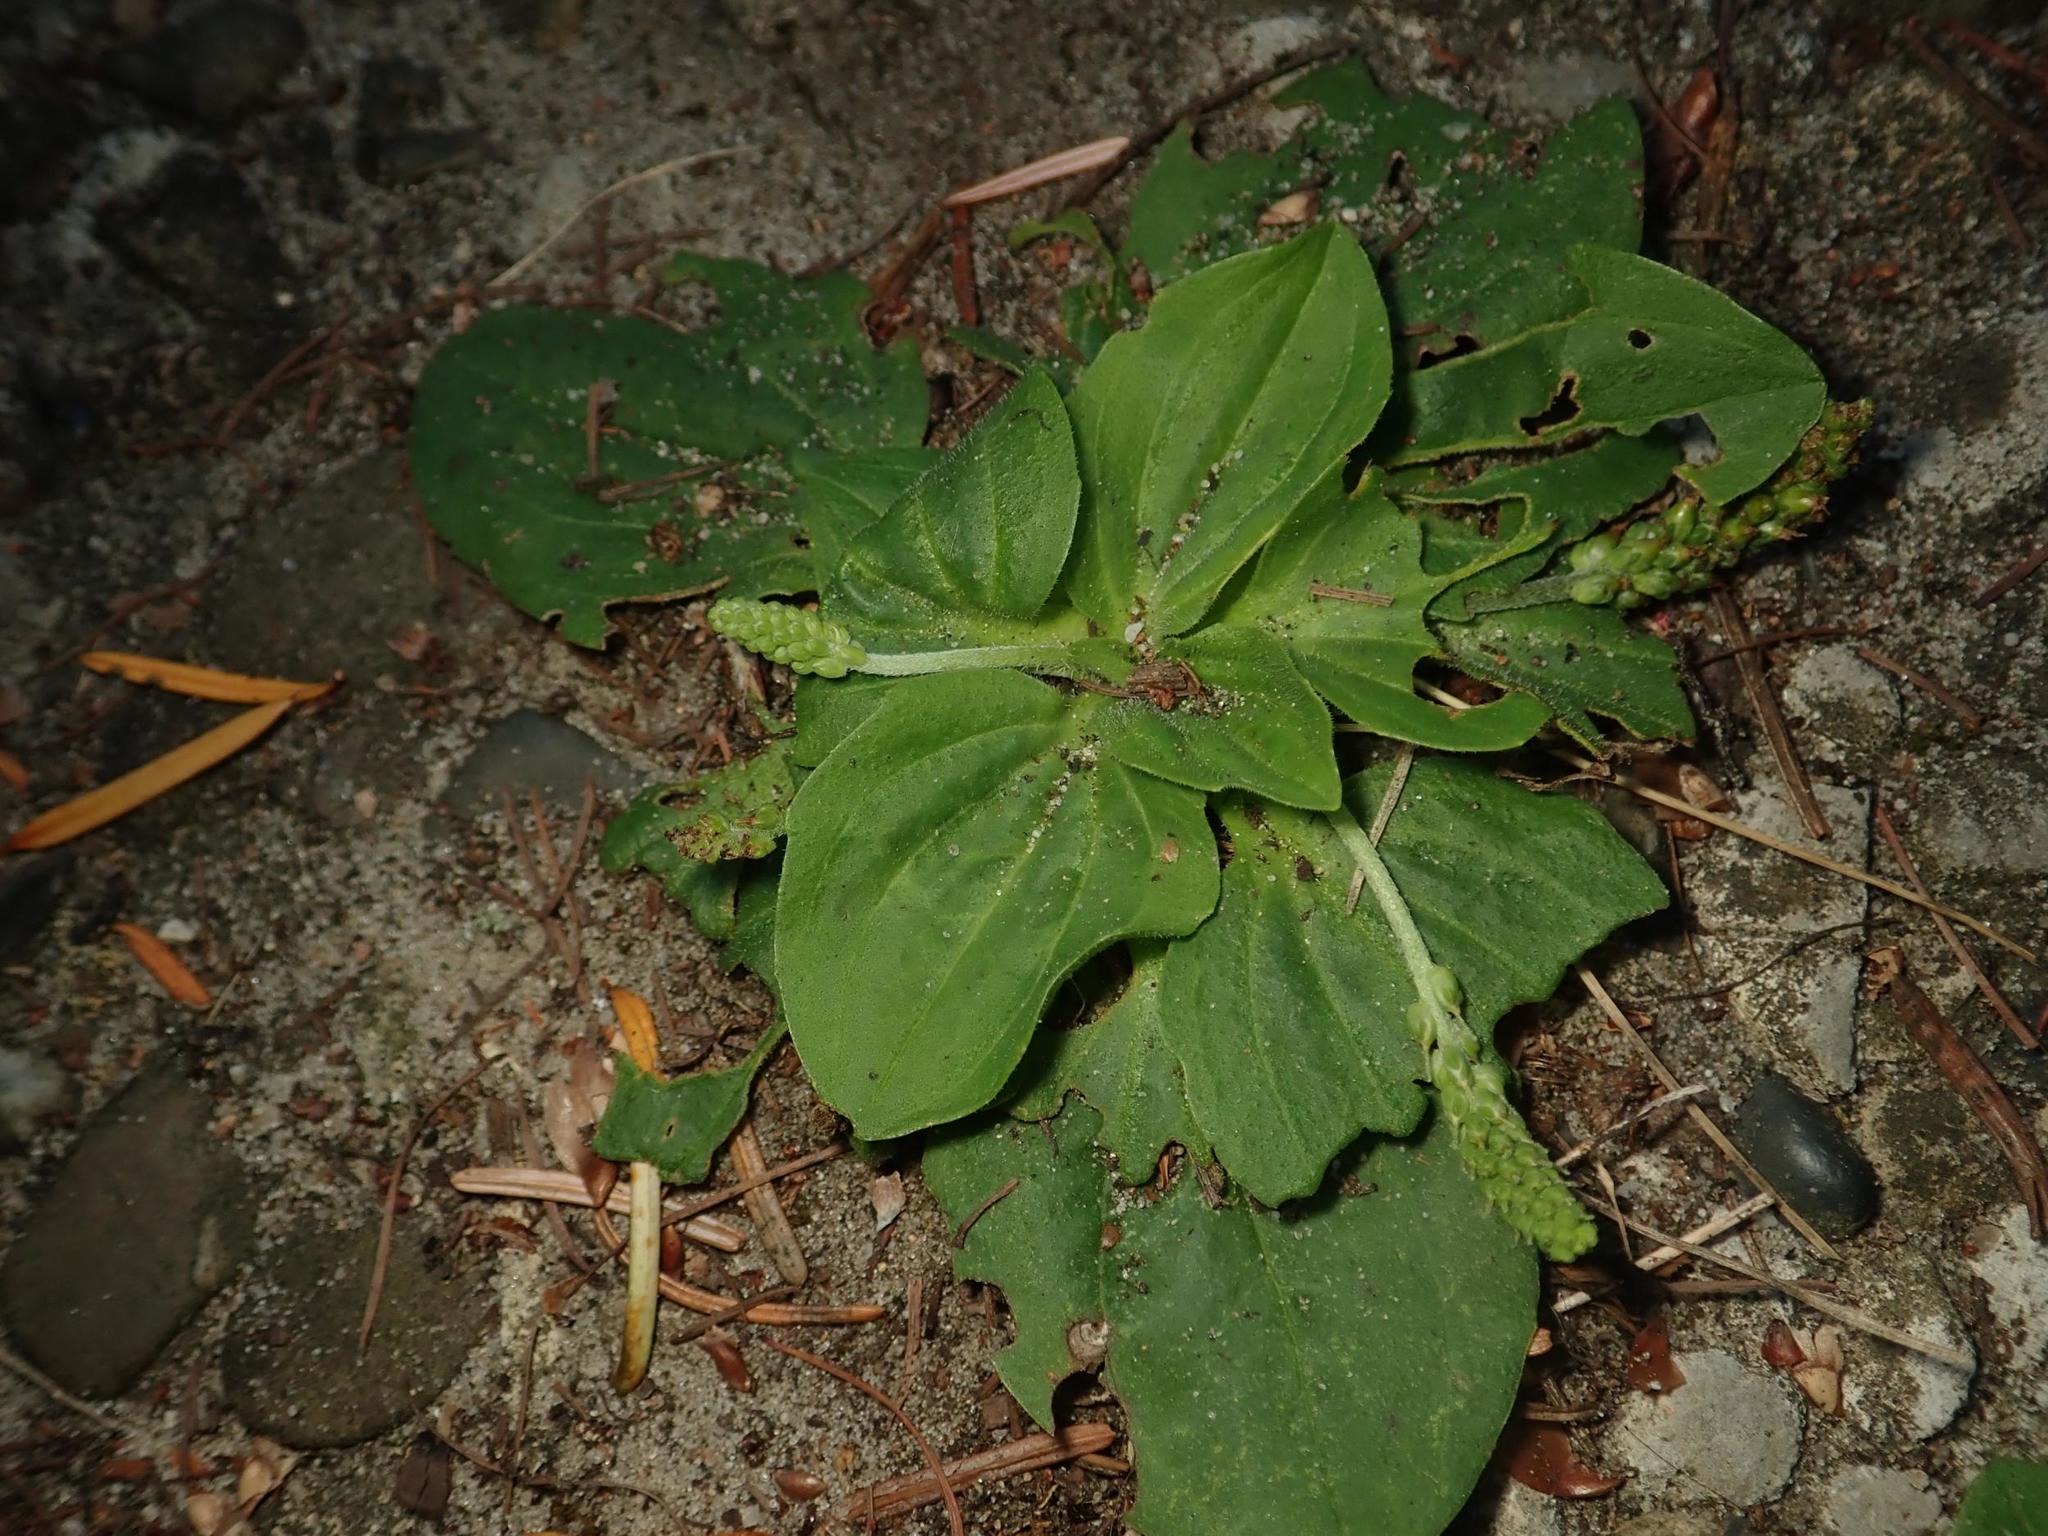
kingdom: Plantae
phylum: Tracheophyta
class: Magnoliopsida
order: Lamiales
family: Plantaginaceae
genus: Plantago
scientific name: Plantago major
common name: Common plantain
